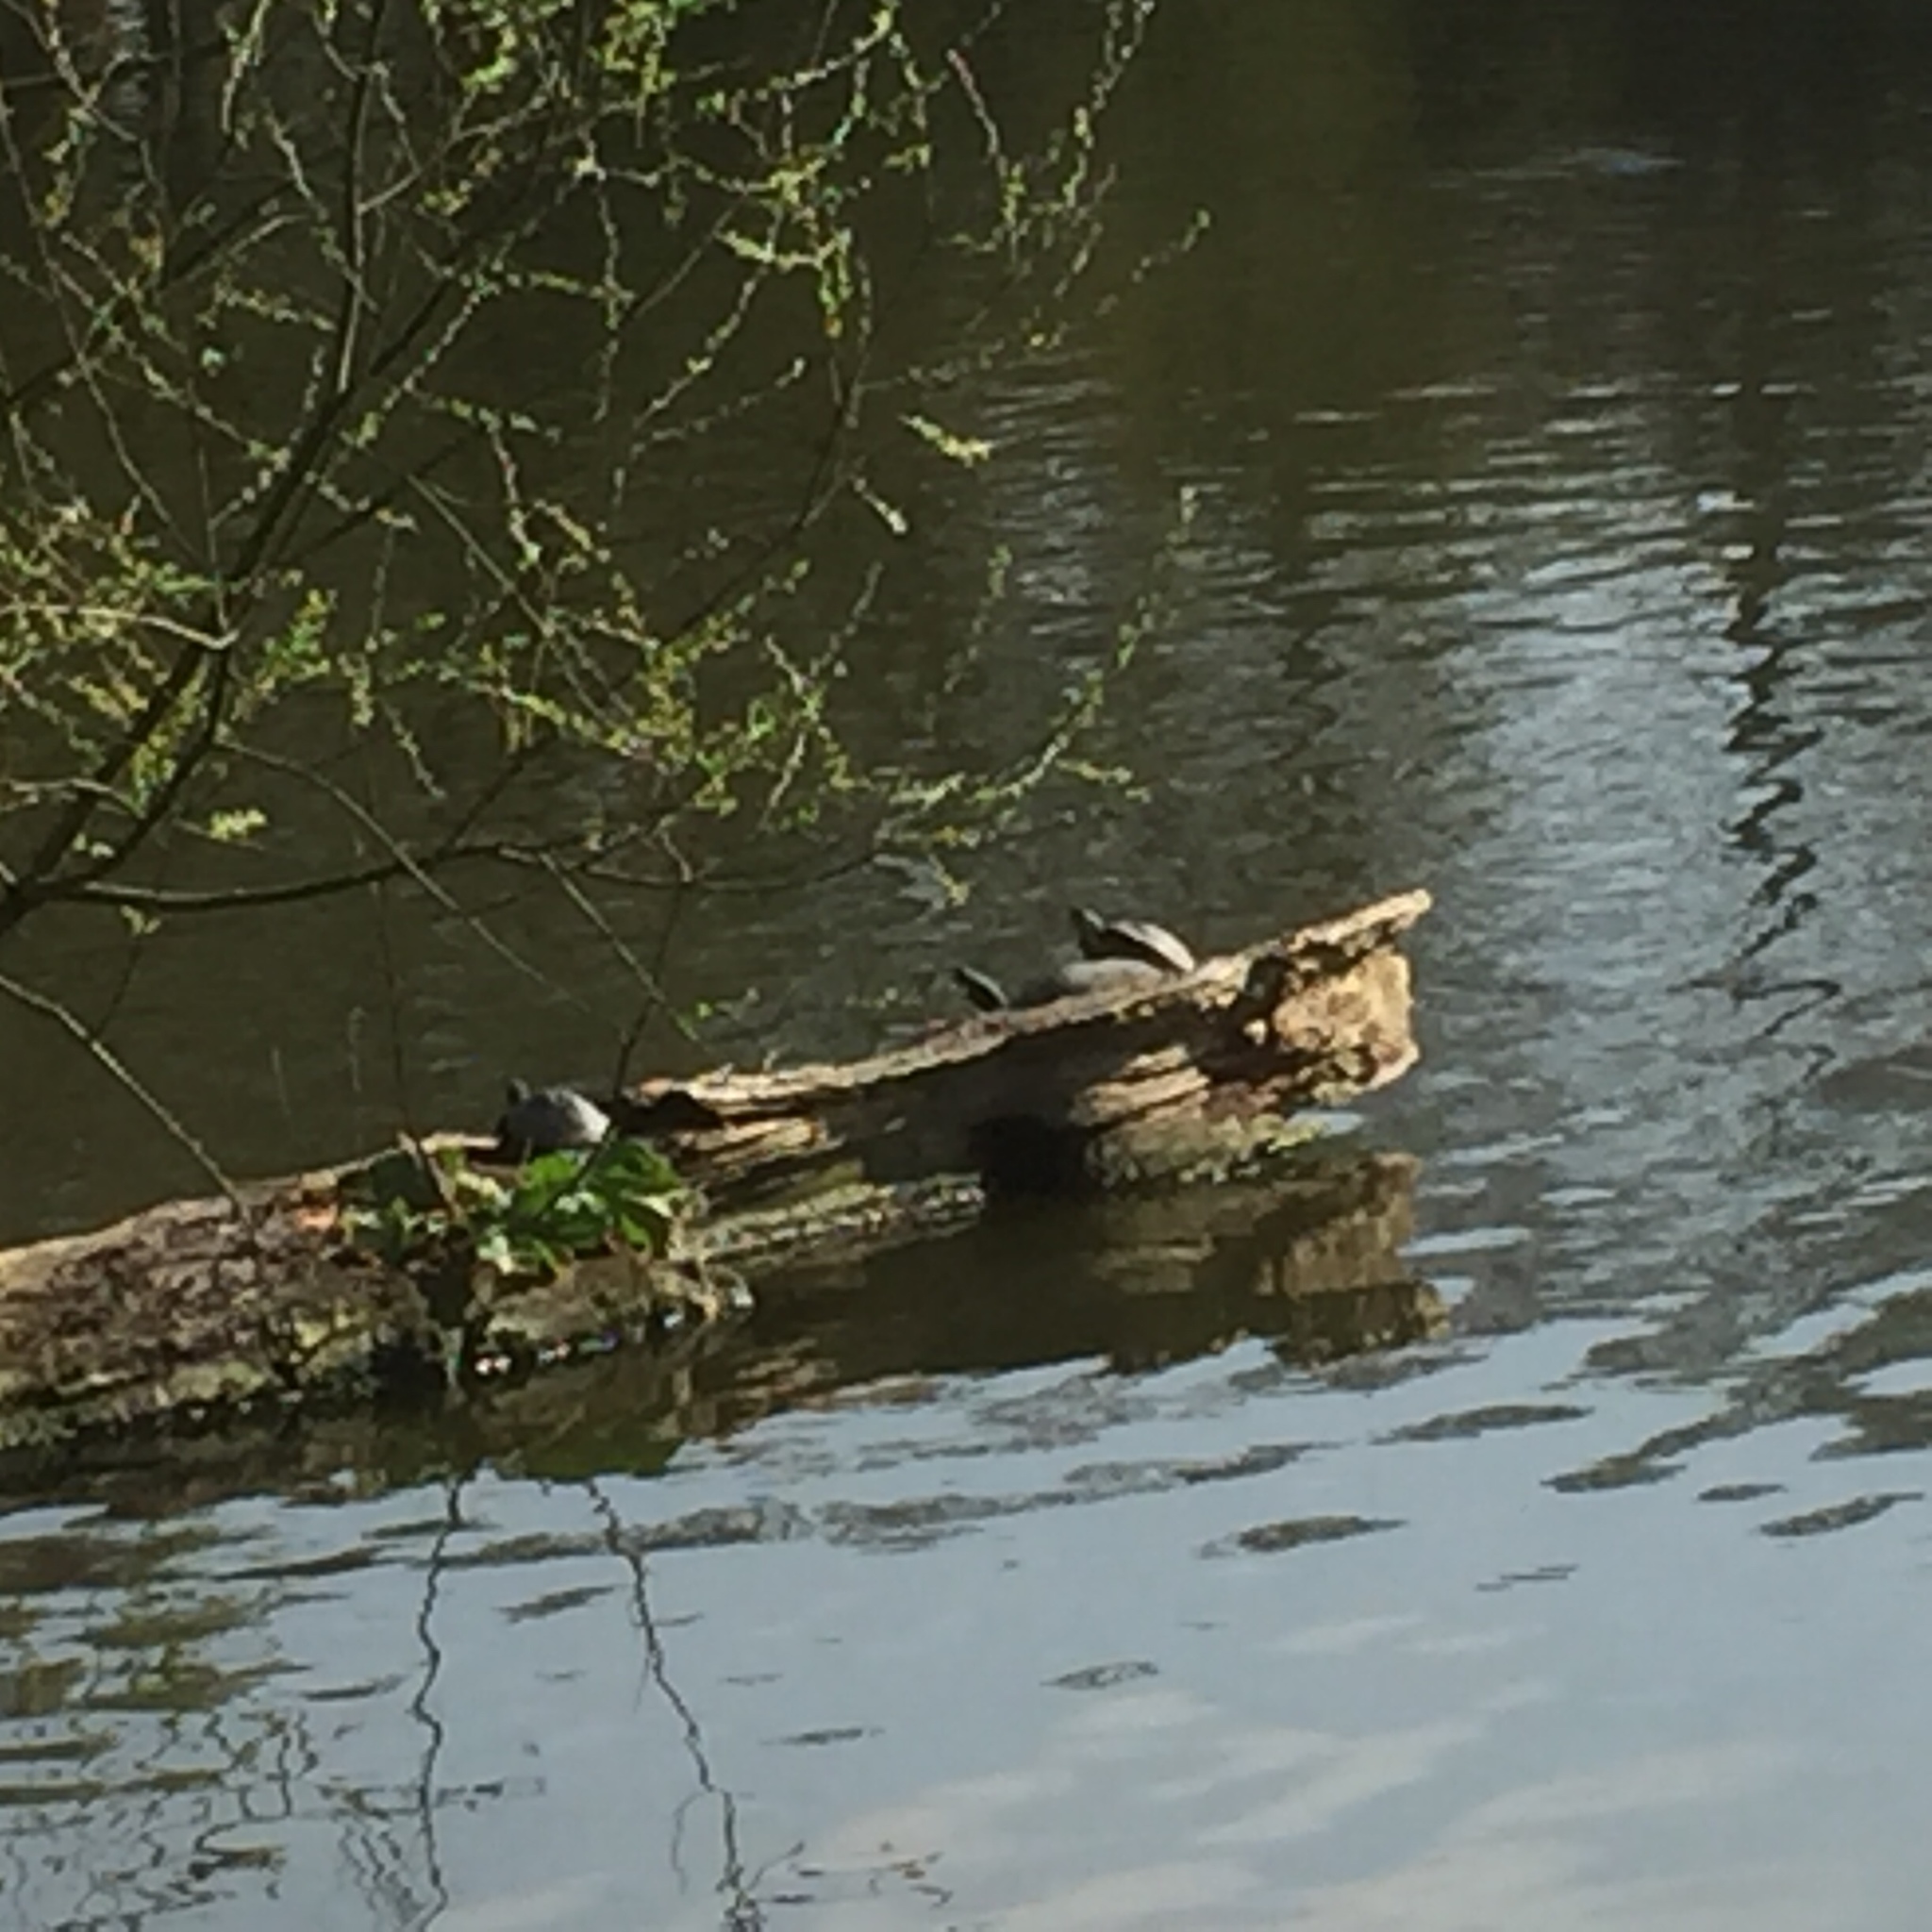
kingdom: Animalia
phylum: Chordata
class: Testudines
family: Emydidae
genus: Trachemys
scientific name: Trachemys scripta
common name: Slider
